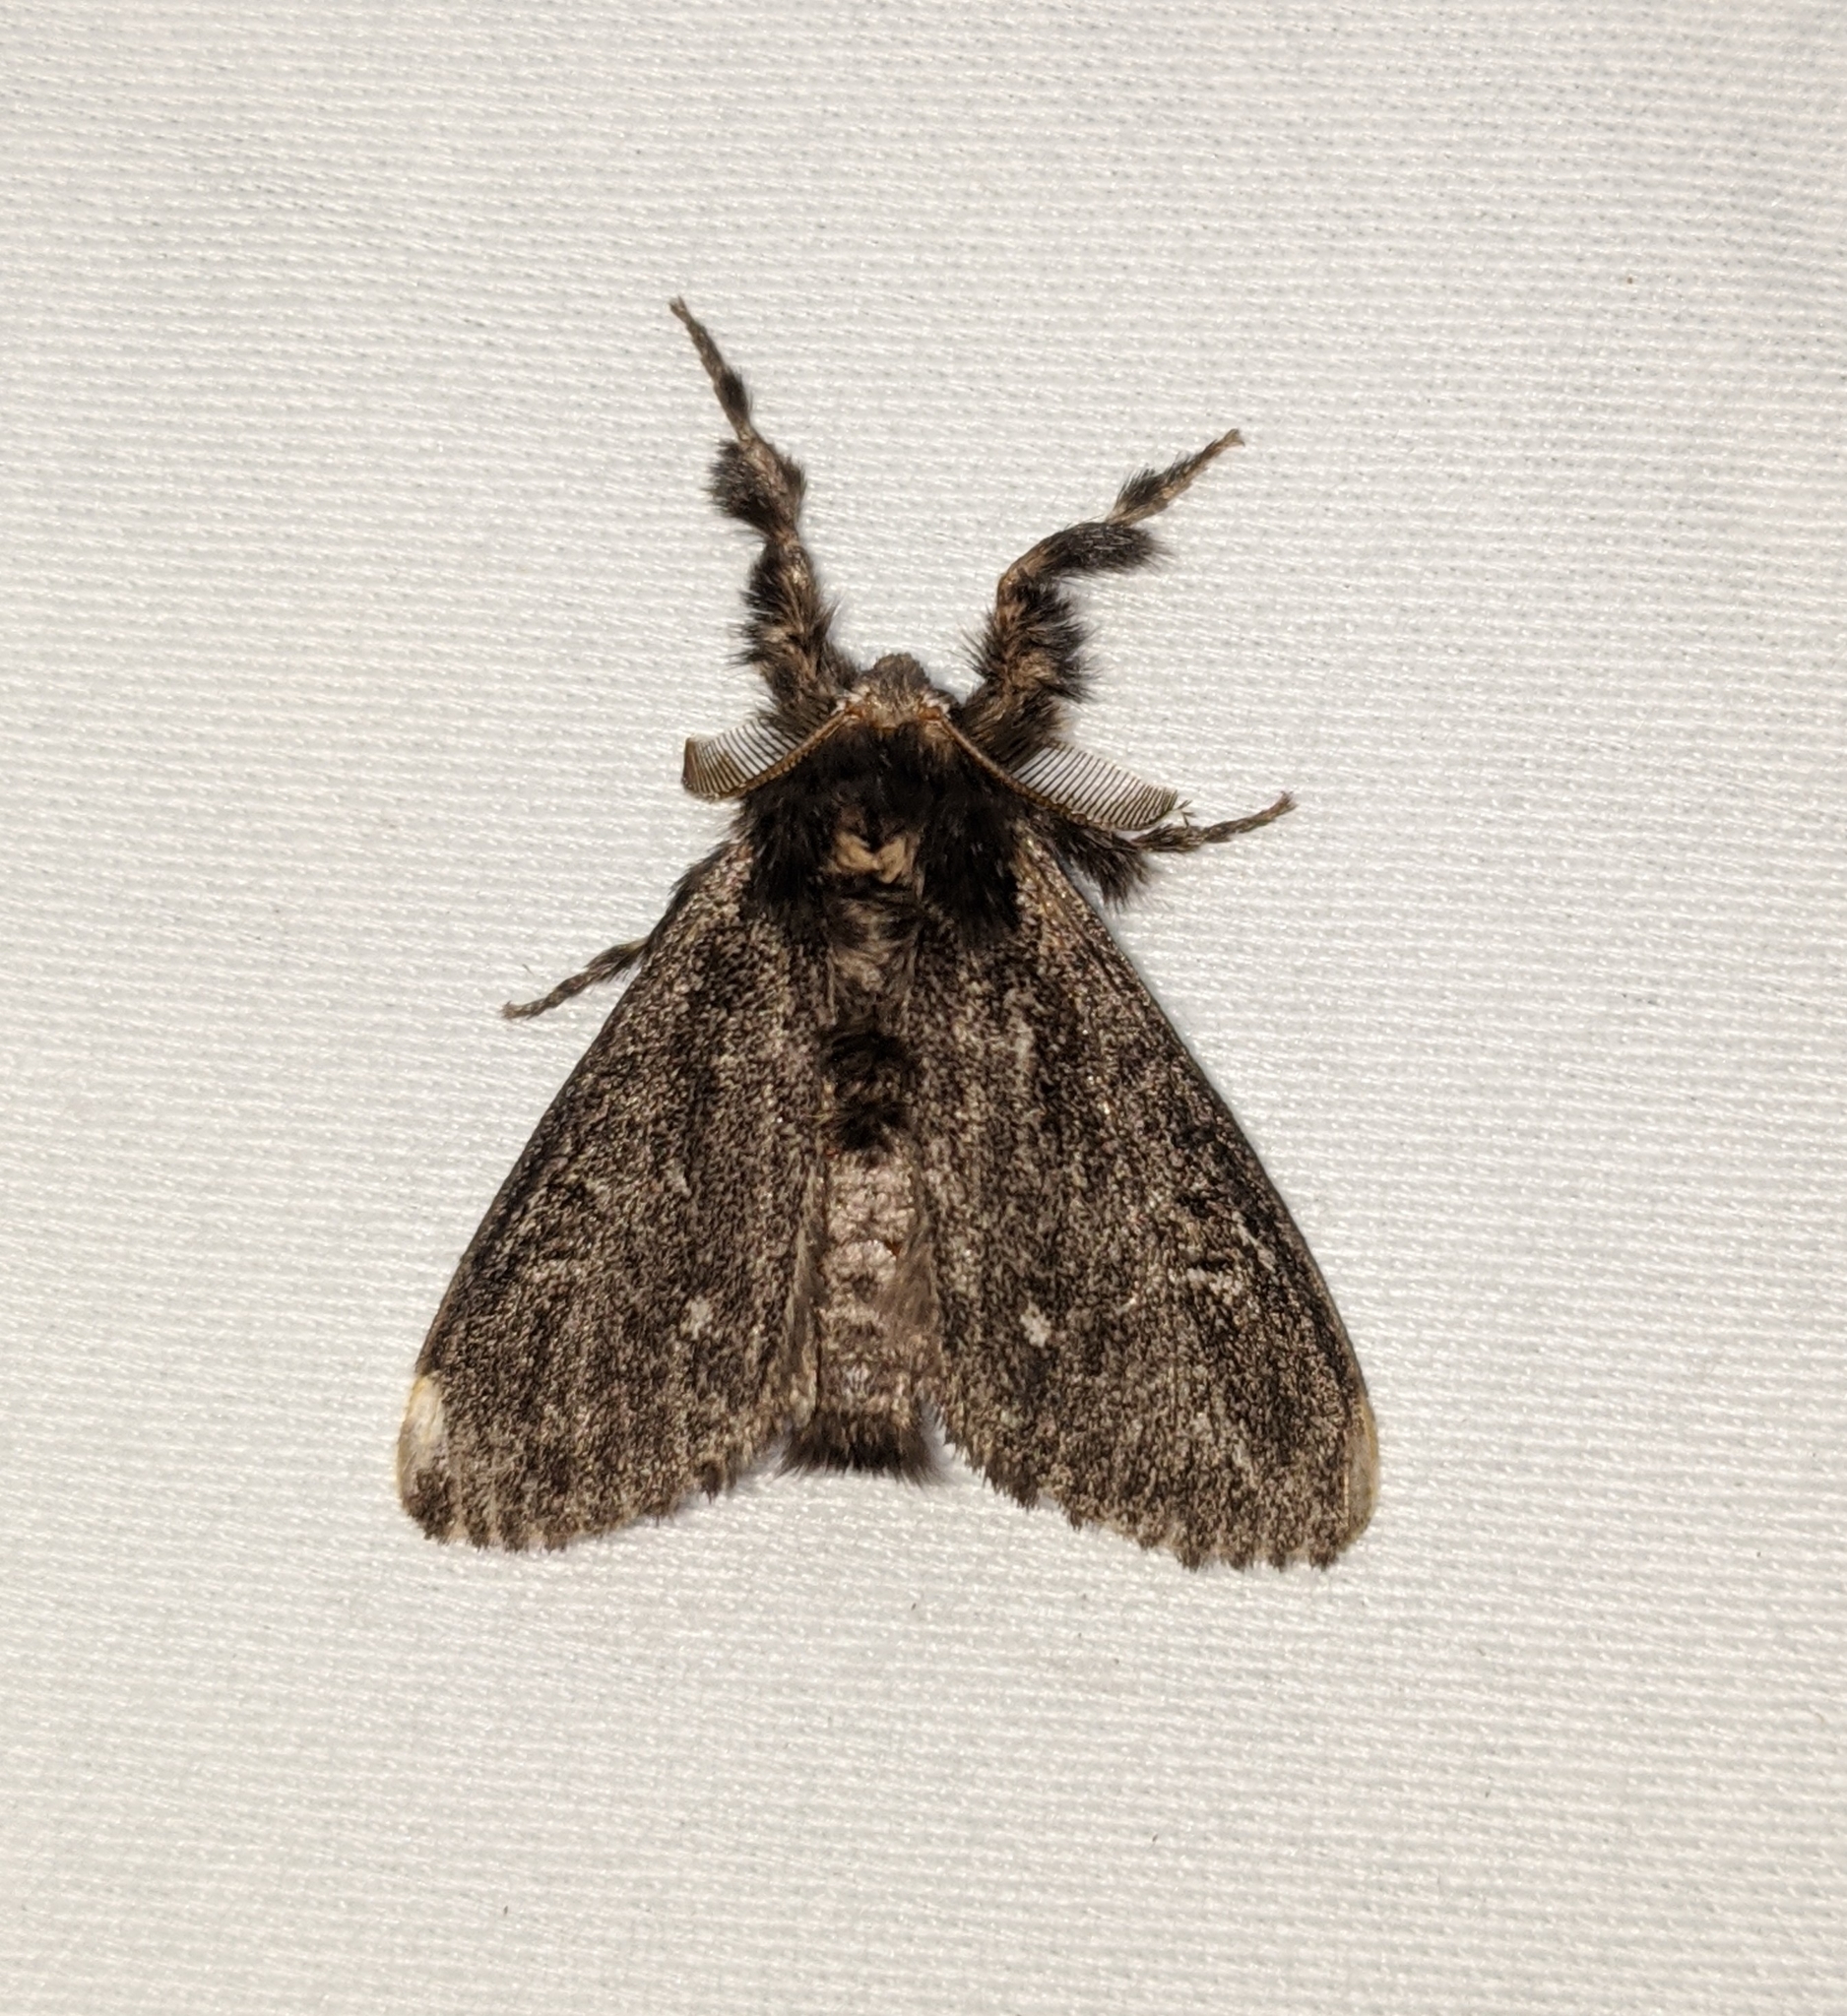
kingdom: Animalia
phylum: Arthropoda
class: Insecta
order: Lepidoptera
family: Erebidae
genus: Dasychira
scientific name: Dasychira grisefacta
